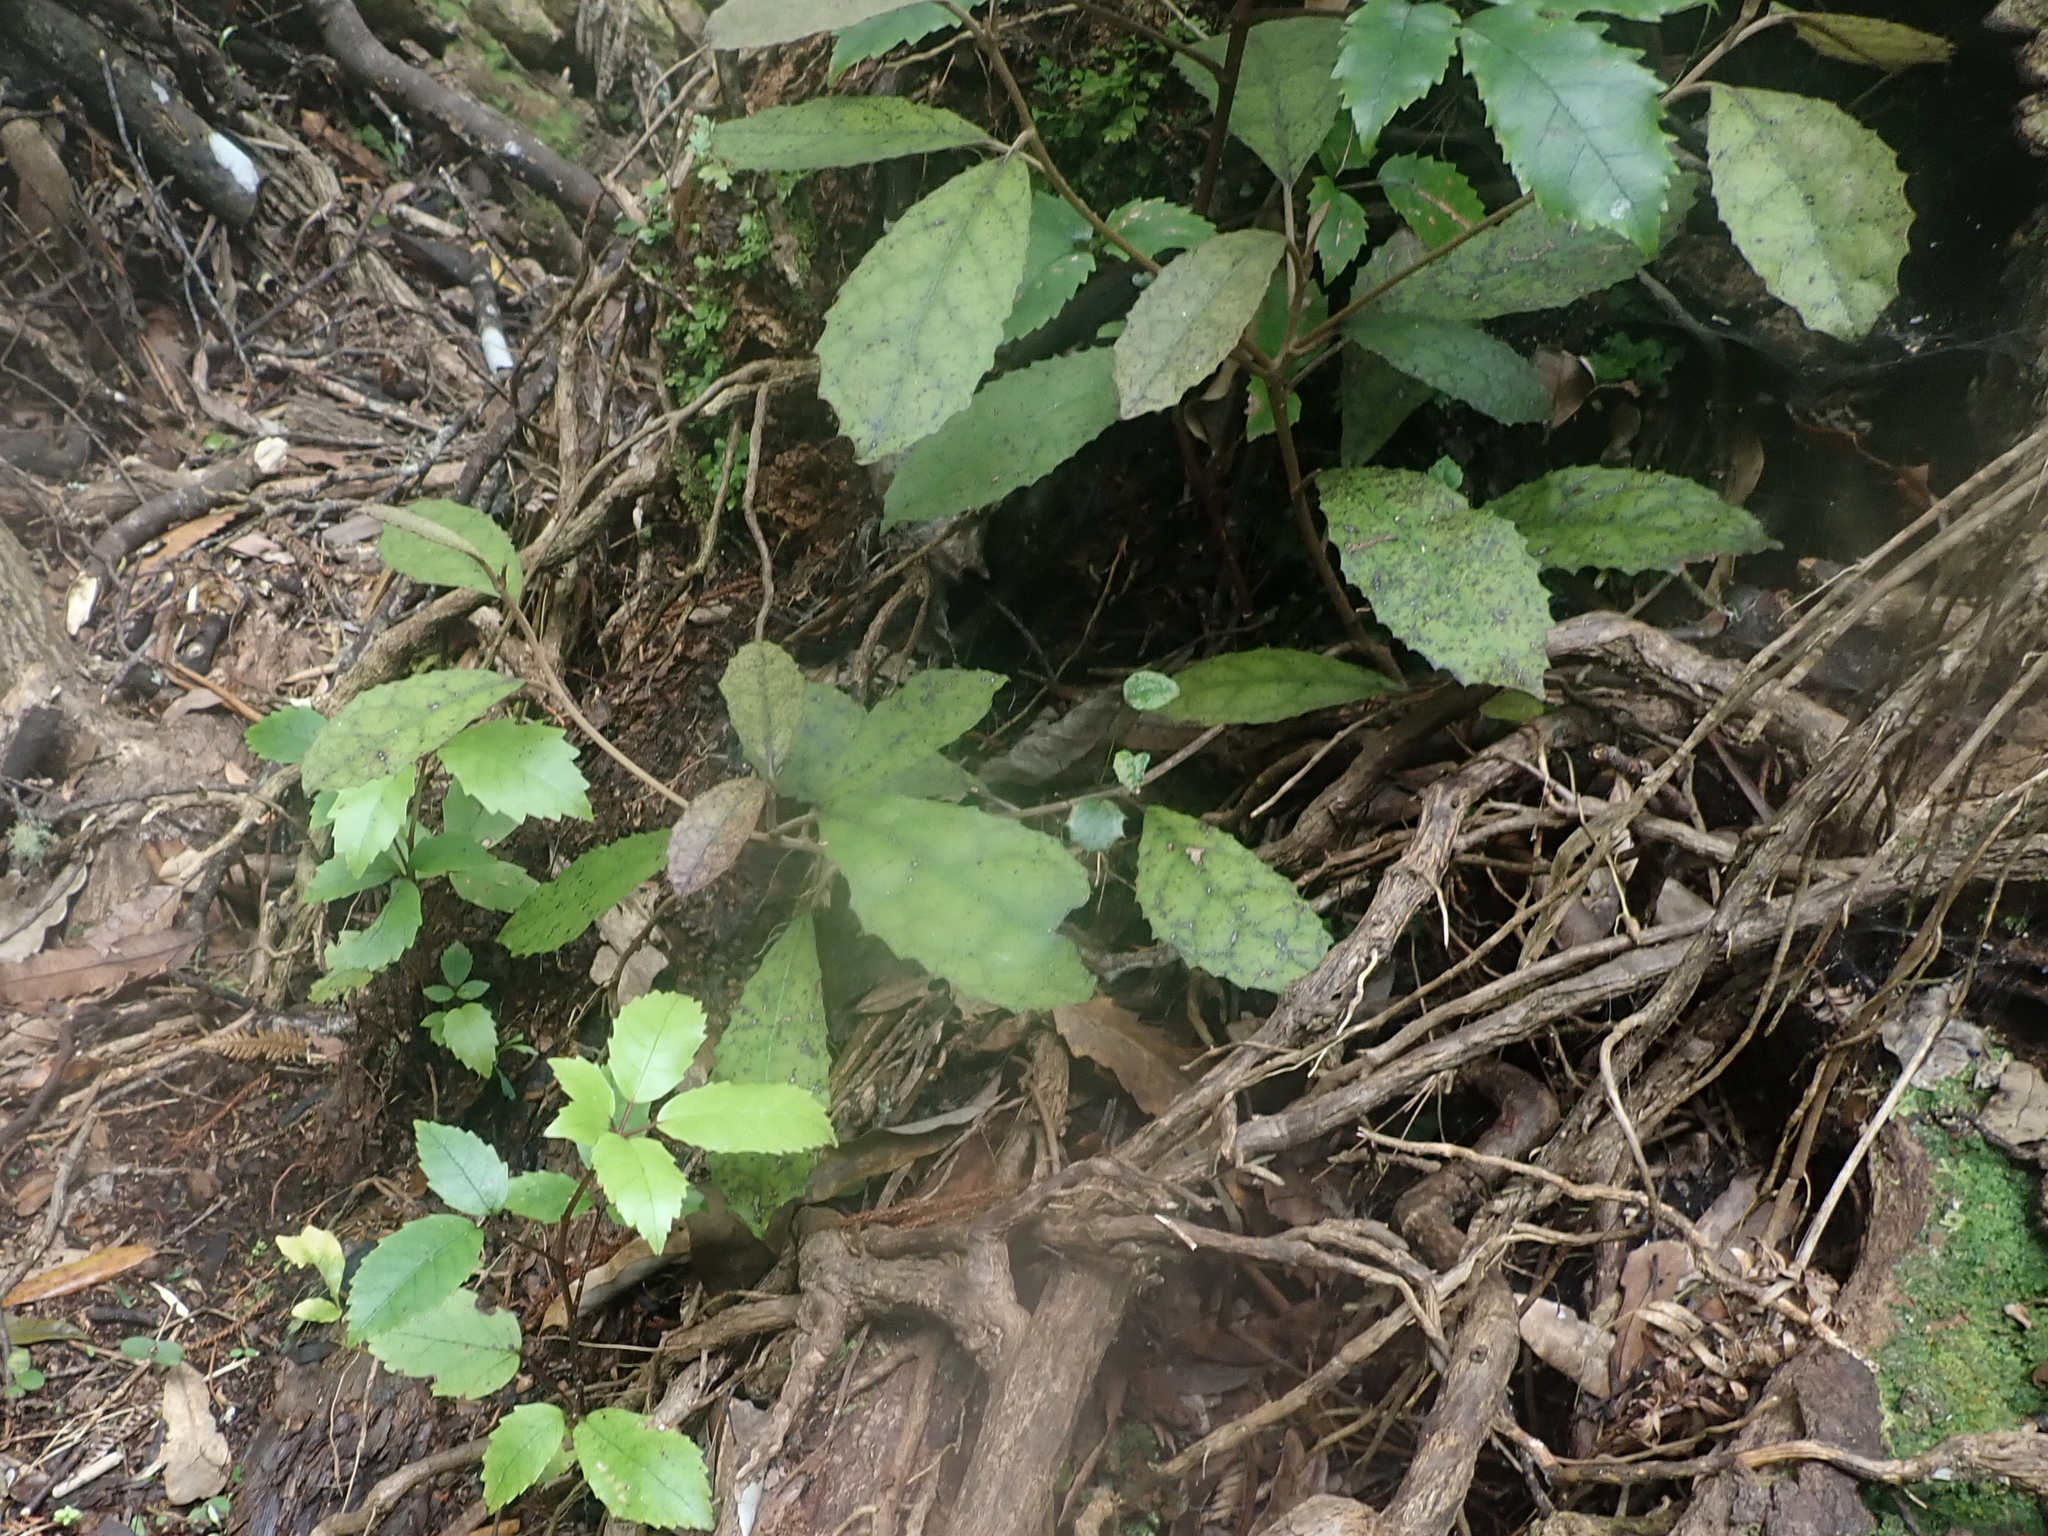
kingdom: Plantae
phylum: Tracheophyta
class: Magnoliopsida
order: Asterales
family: Asteraceae
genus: Olearia
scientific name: Olearia rani
